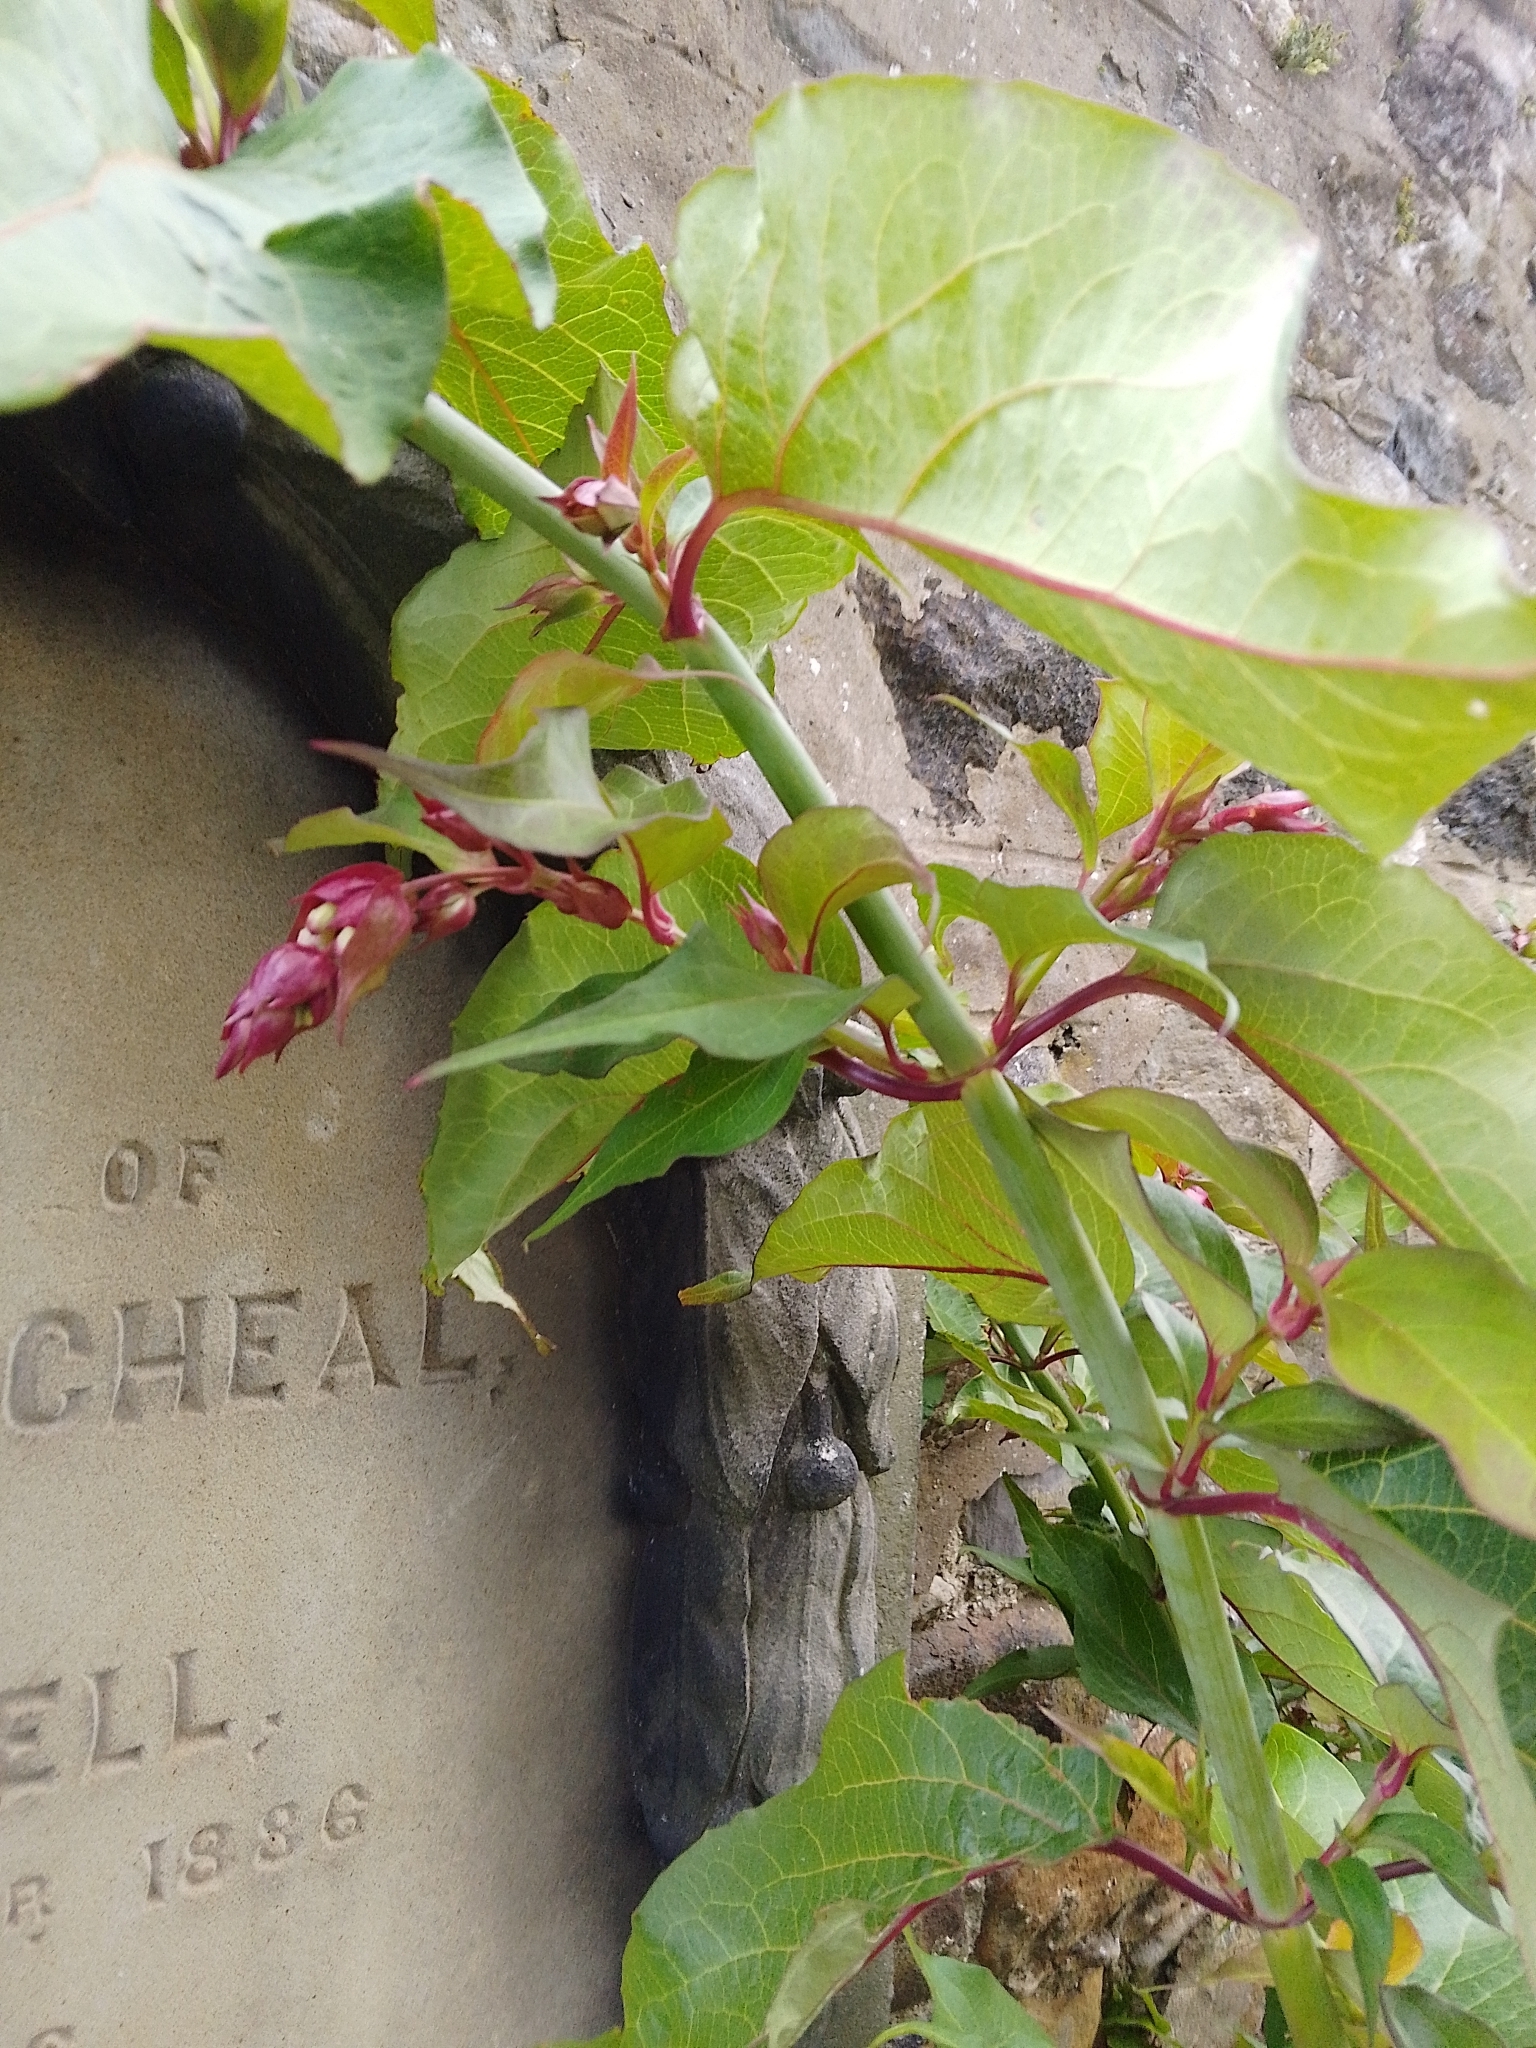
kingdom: Plantae
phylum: Tracheophyta
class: Magnoliopsida
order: Dipsacales
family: Caprifoliaceae
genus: Leycesteria
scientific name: Leycesteria formosa
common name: Himalayan honeysuckle
